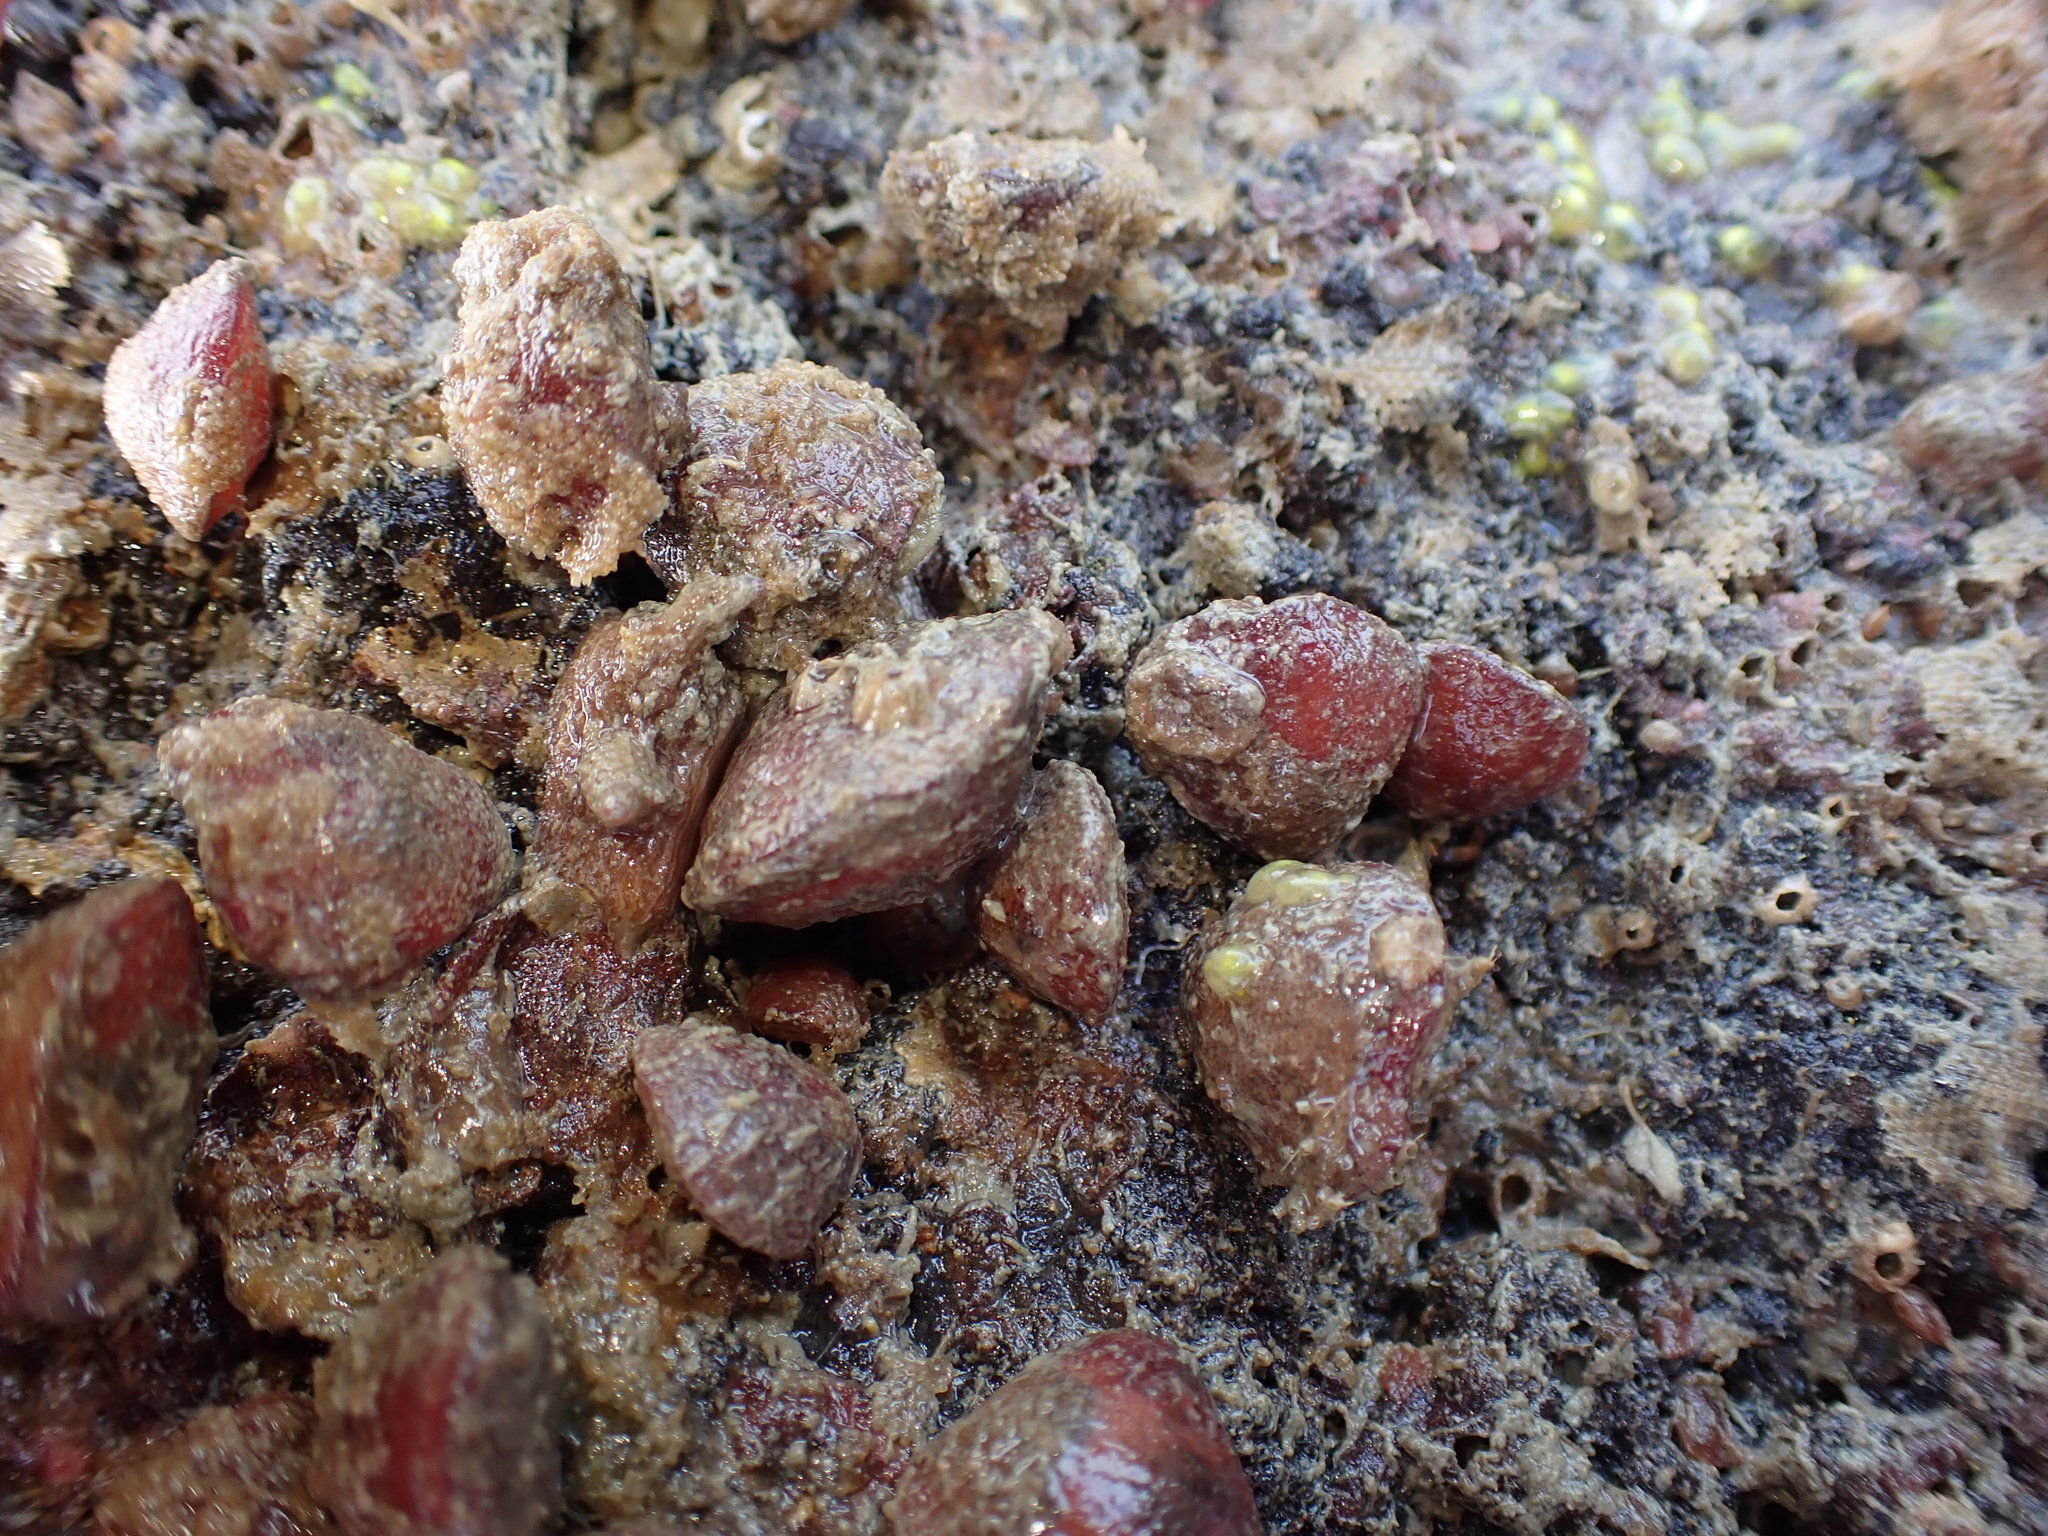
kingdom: Animalia
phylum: Brachiopoda
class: Rhynchonellata
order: Terebratulida
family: Terebratellidae
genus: Calloria
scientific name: Calloria inconspicua
